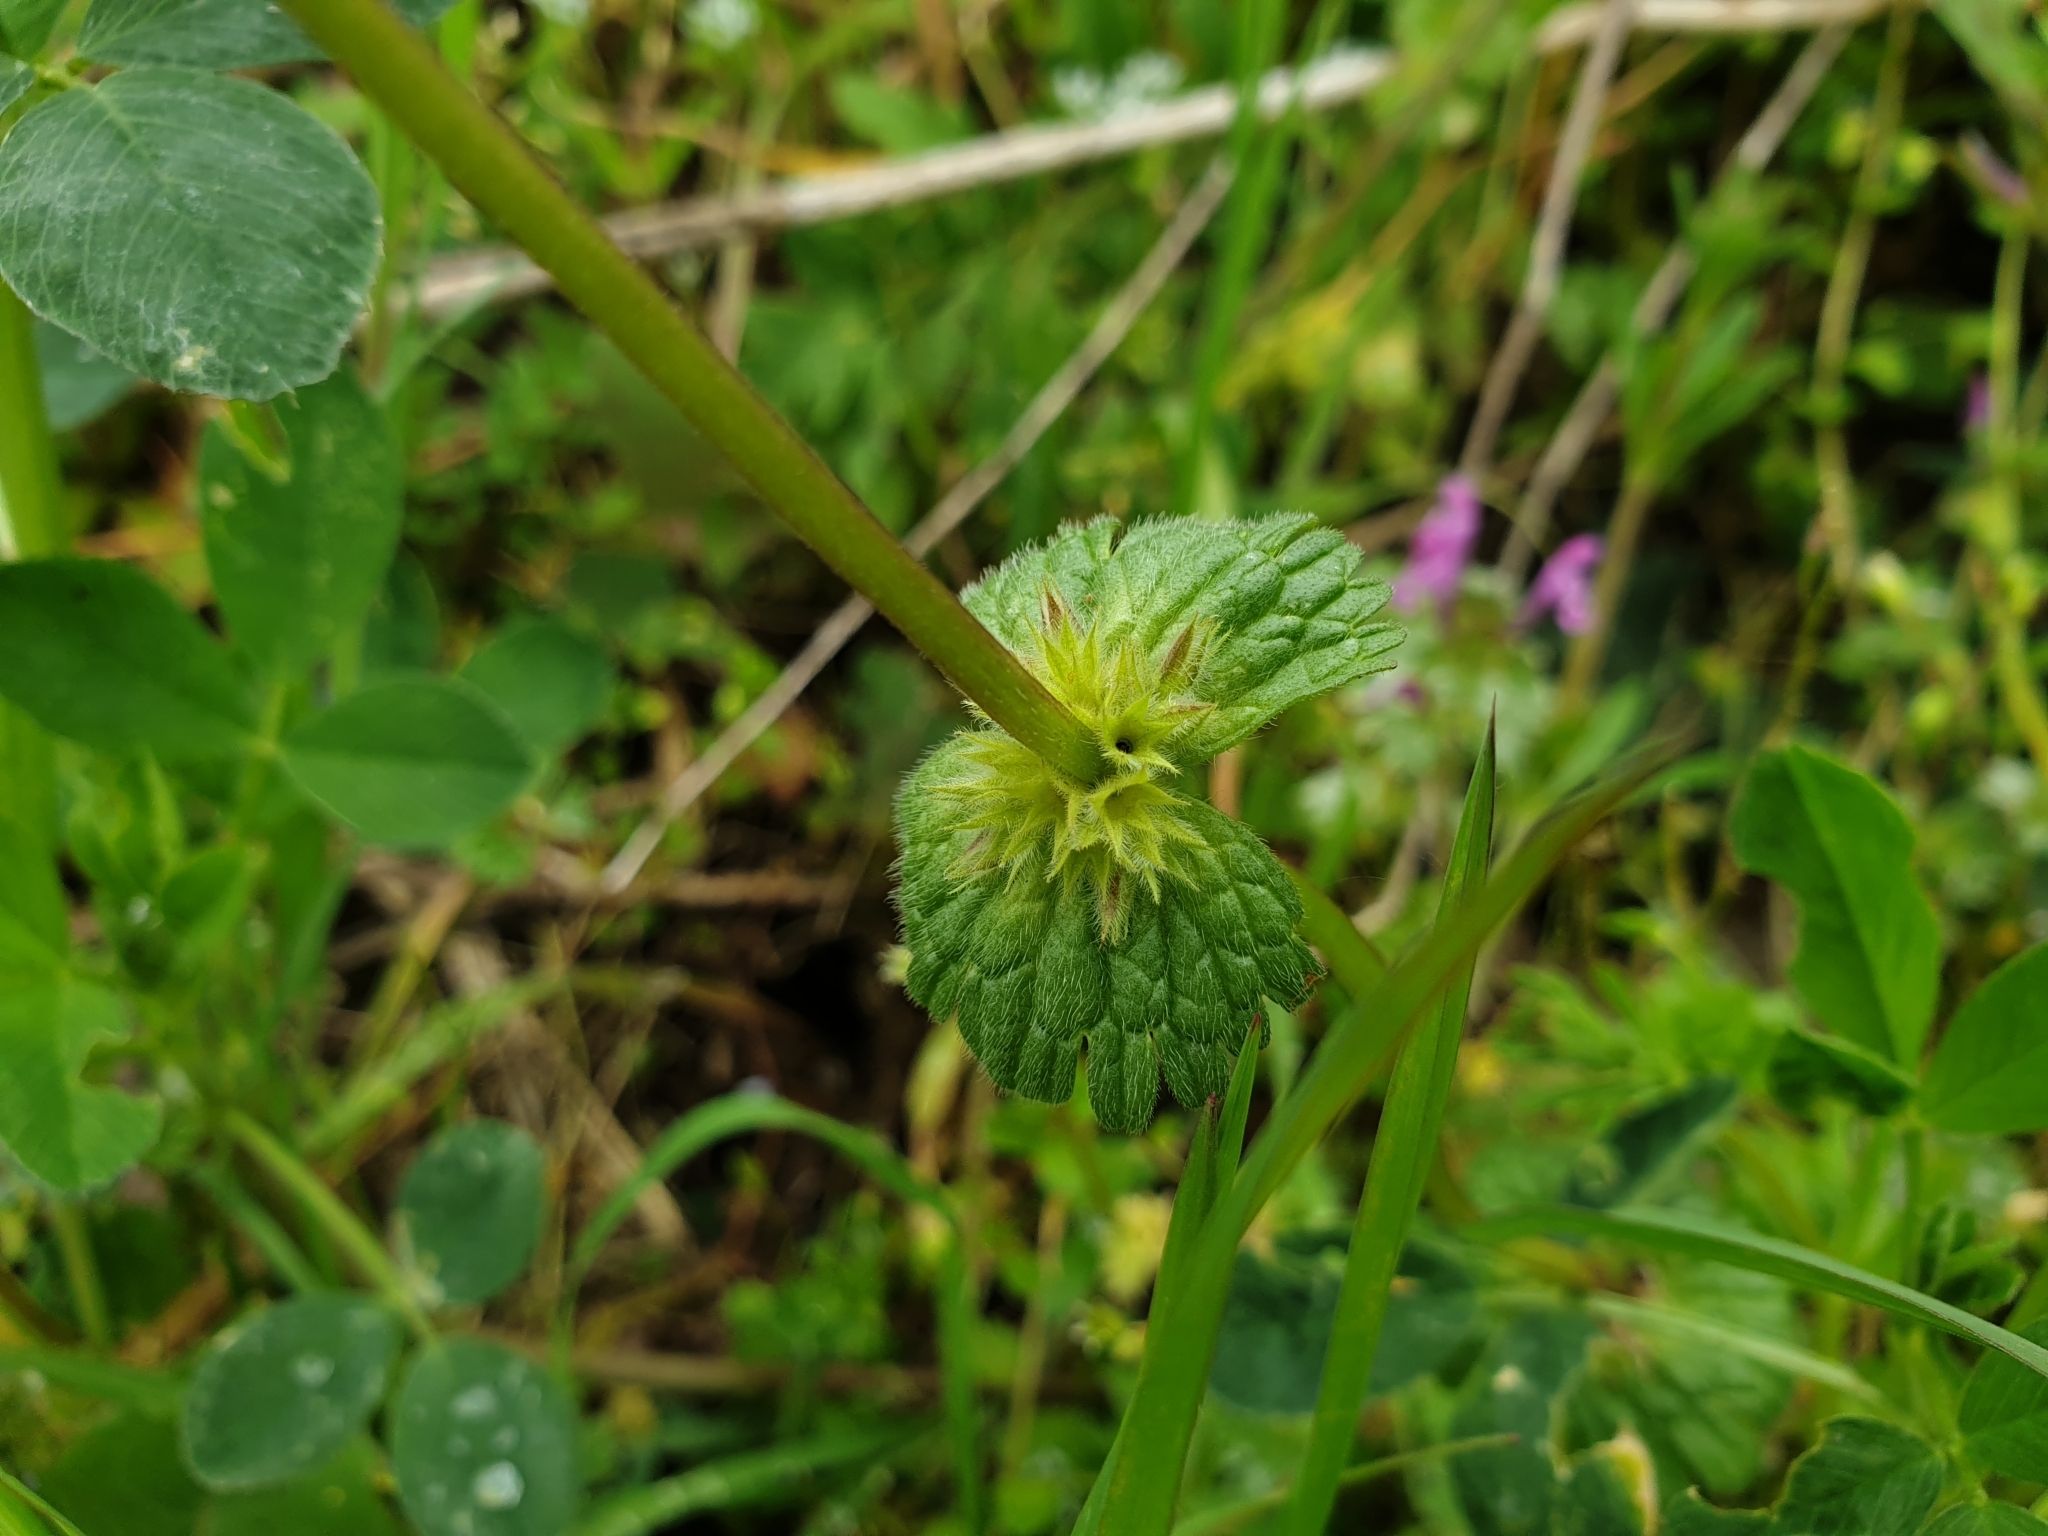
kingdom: Plantae
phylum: Tracheophyta
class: Magnoliopsida
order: Lamiales
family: Lamiaceae
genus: Lamium
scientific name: Lamium amplexicaule
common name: Henbit dead-nettle
